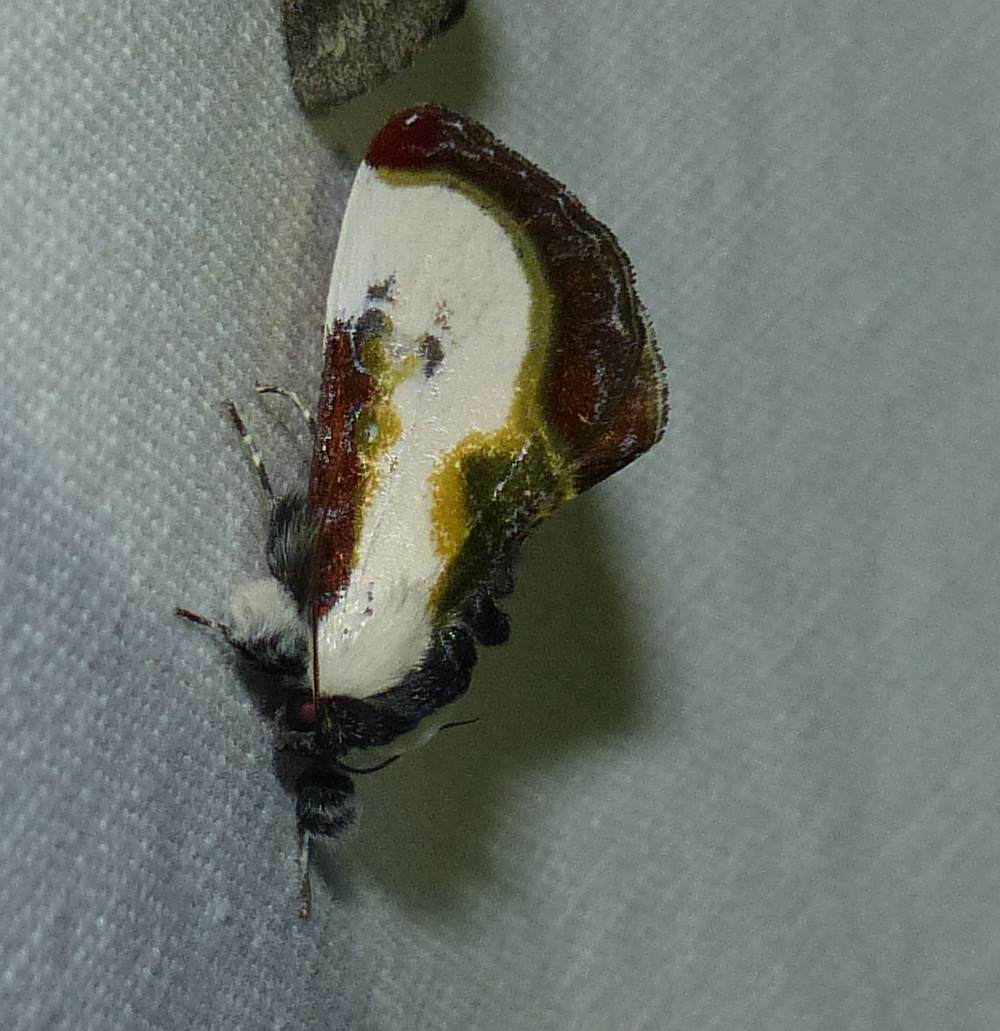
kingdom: Animalia
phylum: Arthropoda
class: Insecta
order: Lepidoptera
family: Noctuidae
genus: Eudryas
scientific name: Eudryas grata
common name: Beautiful wood-nymph
